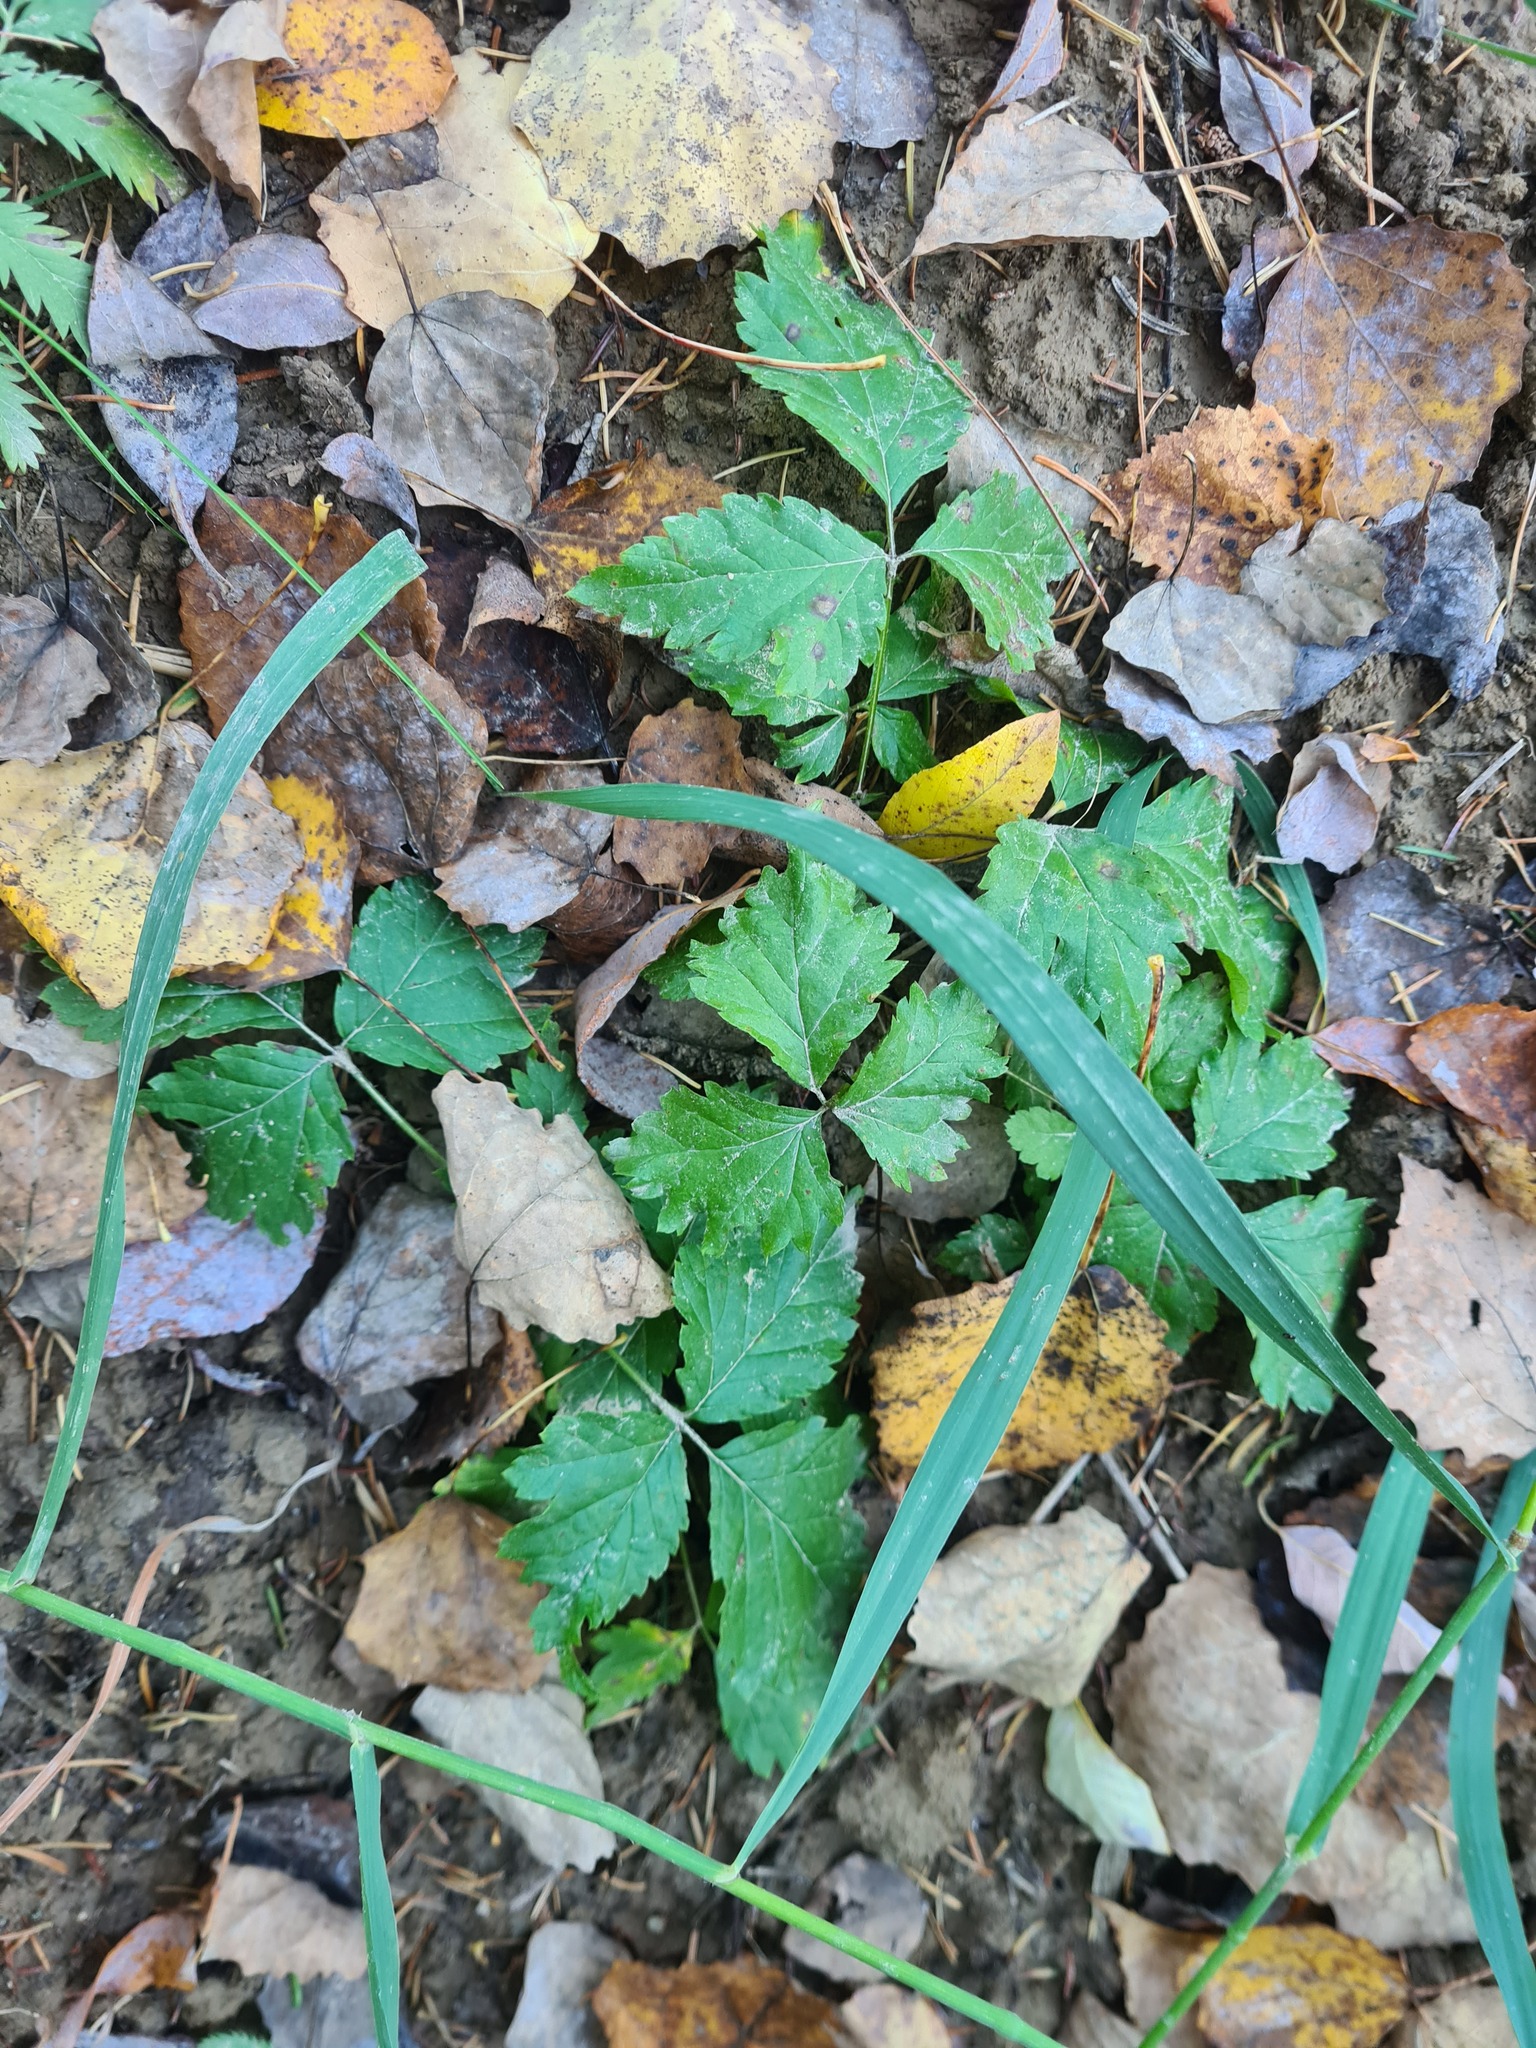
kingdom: Plantae
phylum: Tracheophyta
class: Magnoliopsida
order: Rosales
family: Rosaceae
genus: Rubus
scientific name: Rubus arcticus
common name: Arctic bramble
